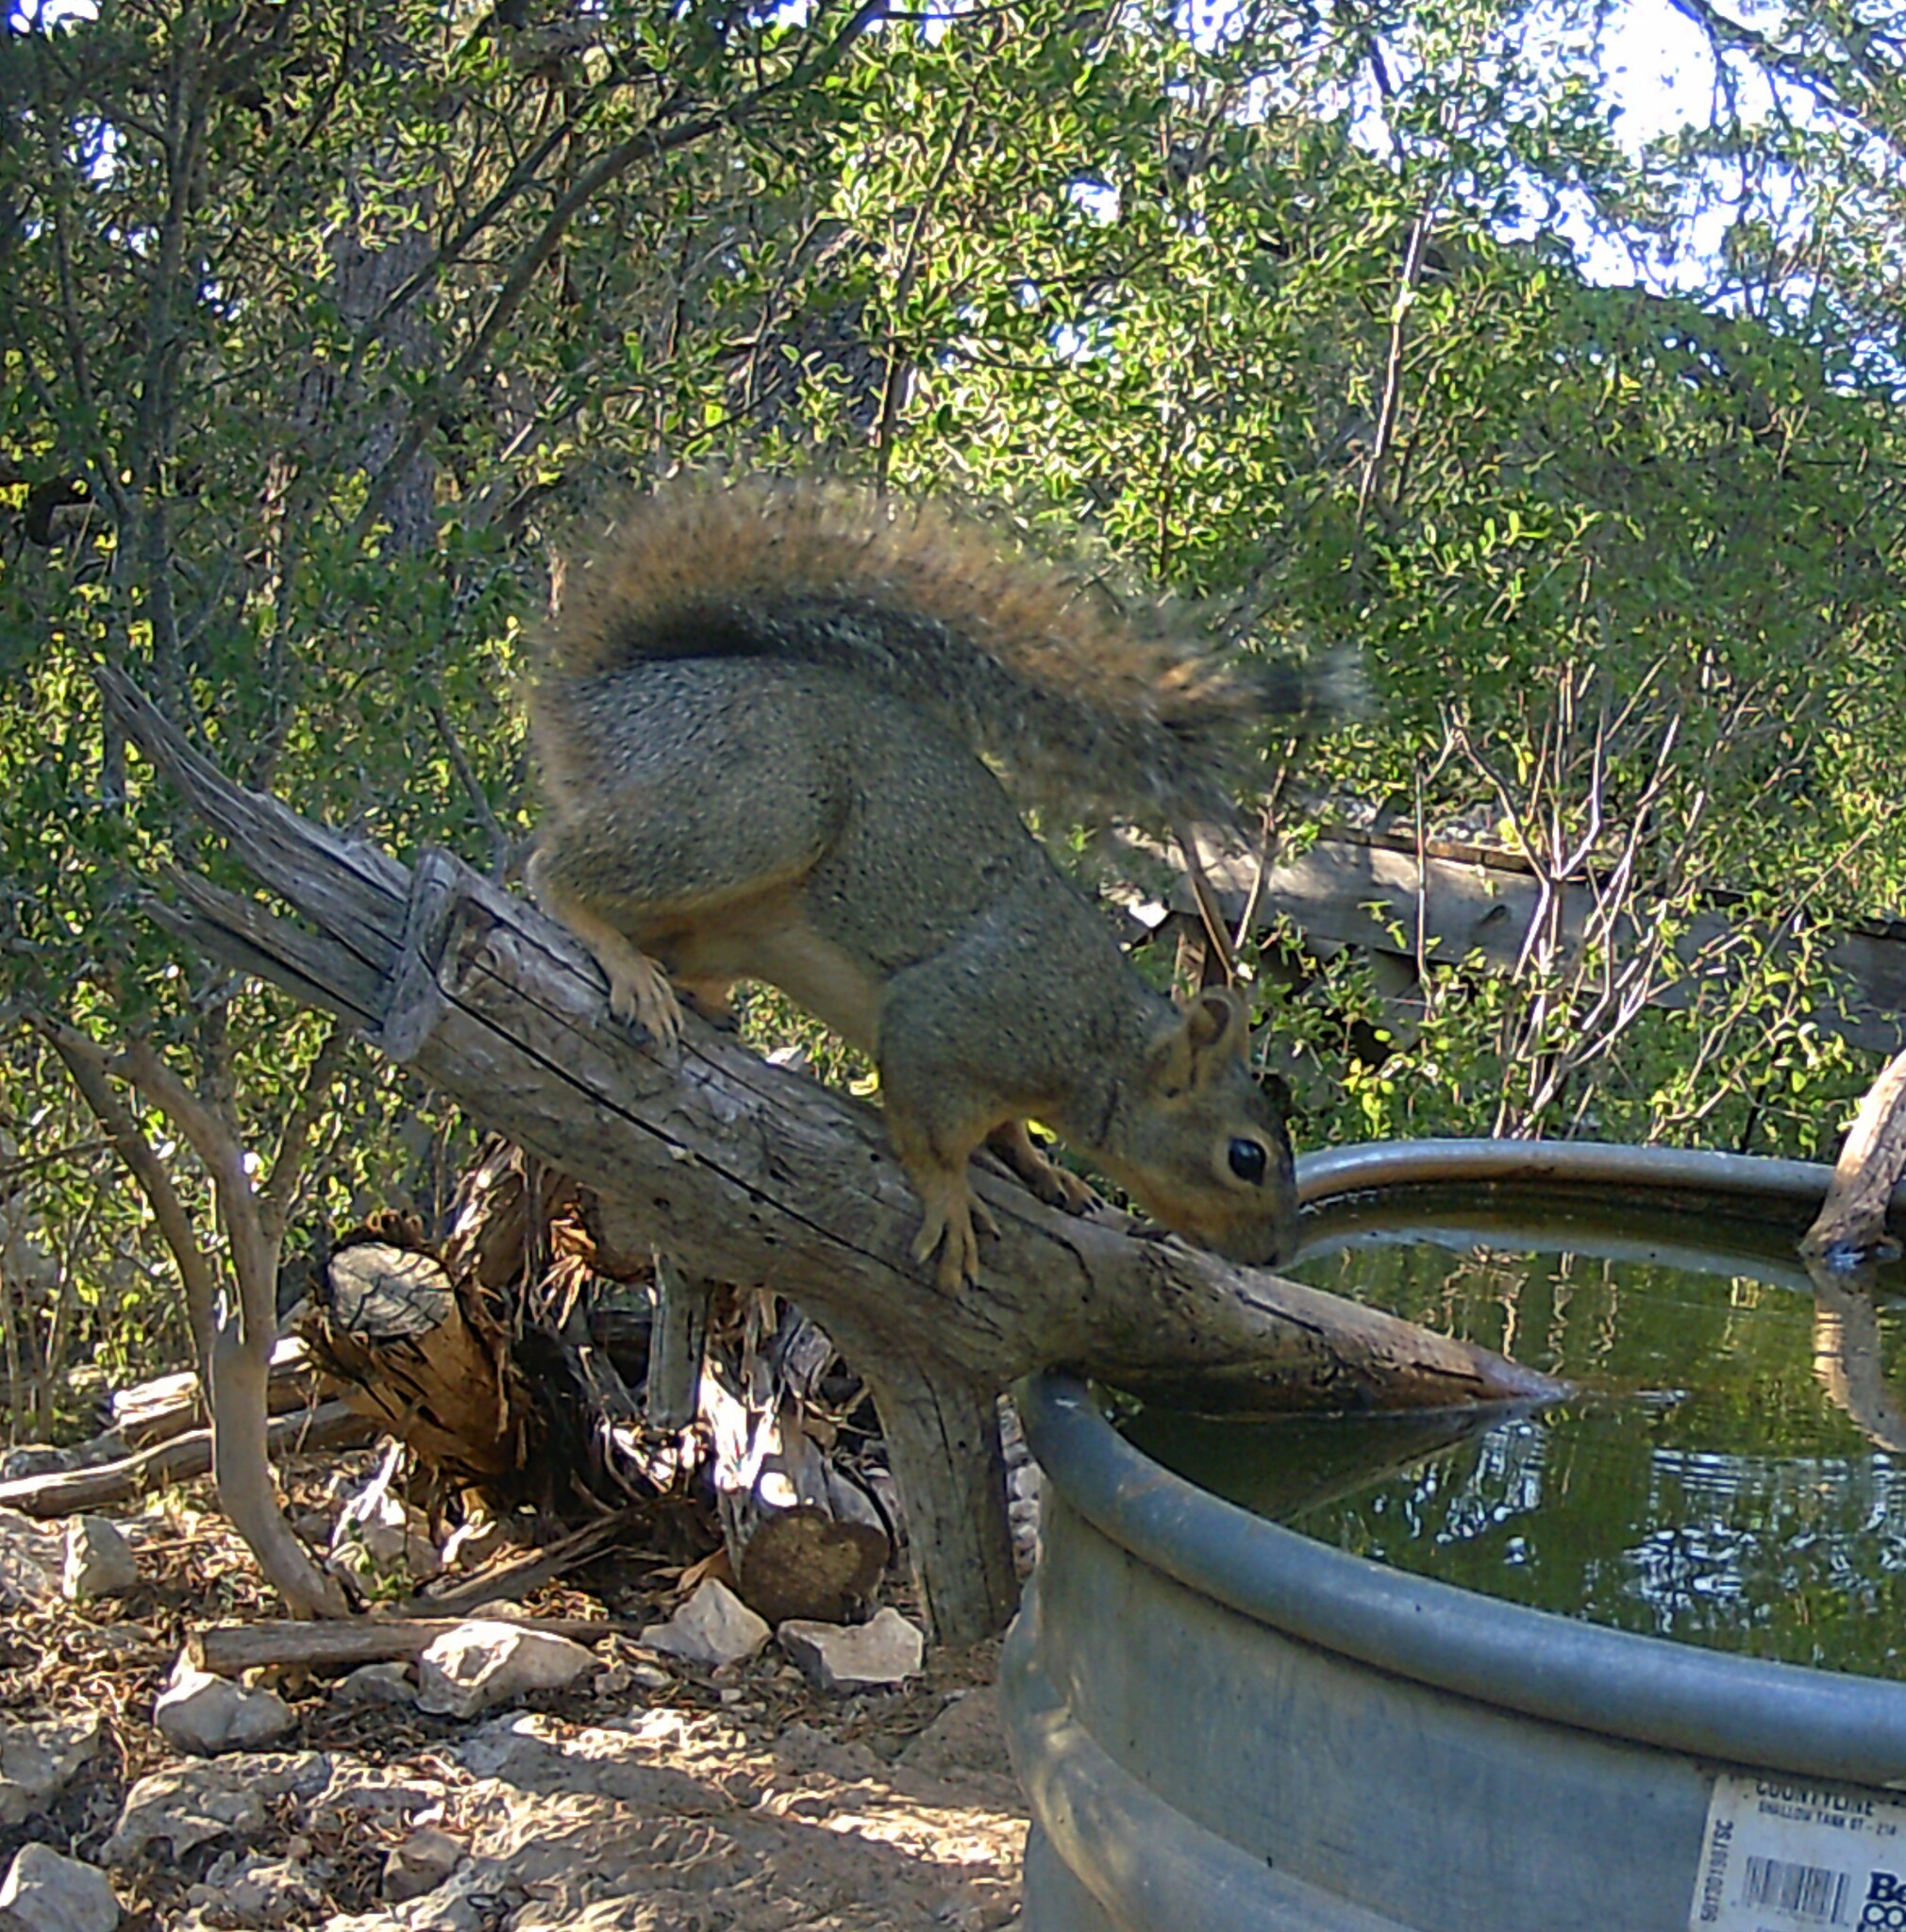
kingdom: Animalia
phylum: Chordata
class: Mammalia
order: Rodentia
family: Sciuridae
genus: Sciurus
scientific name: Sciurus niger
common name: Fox squirrel
